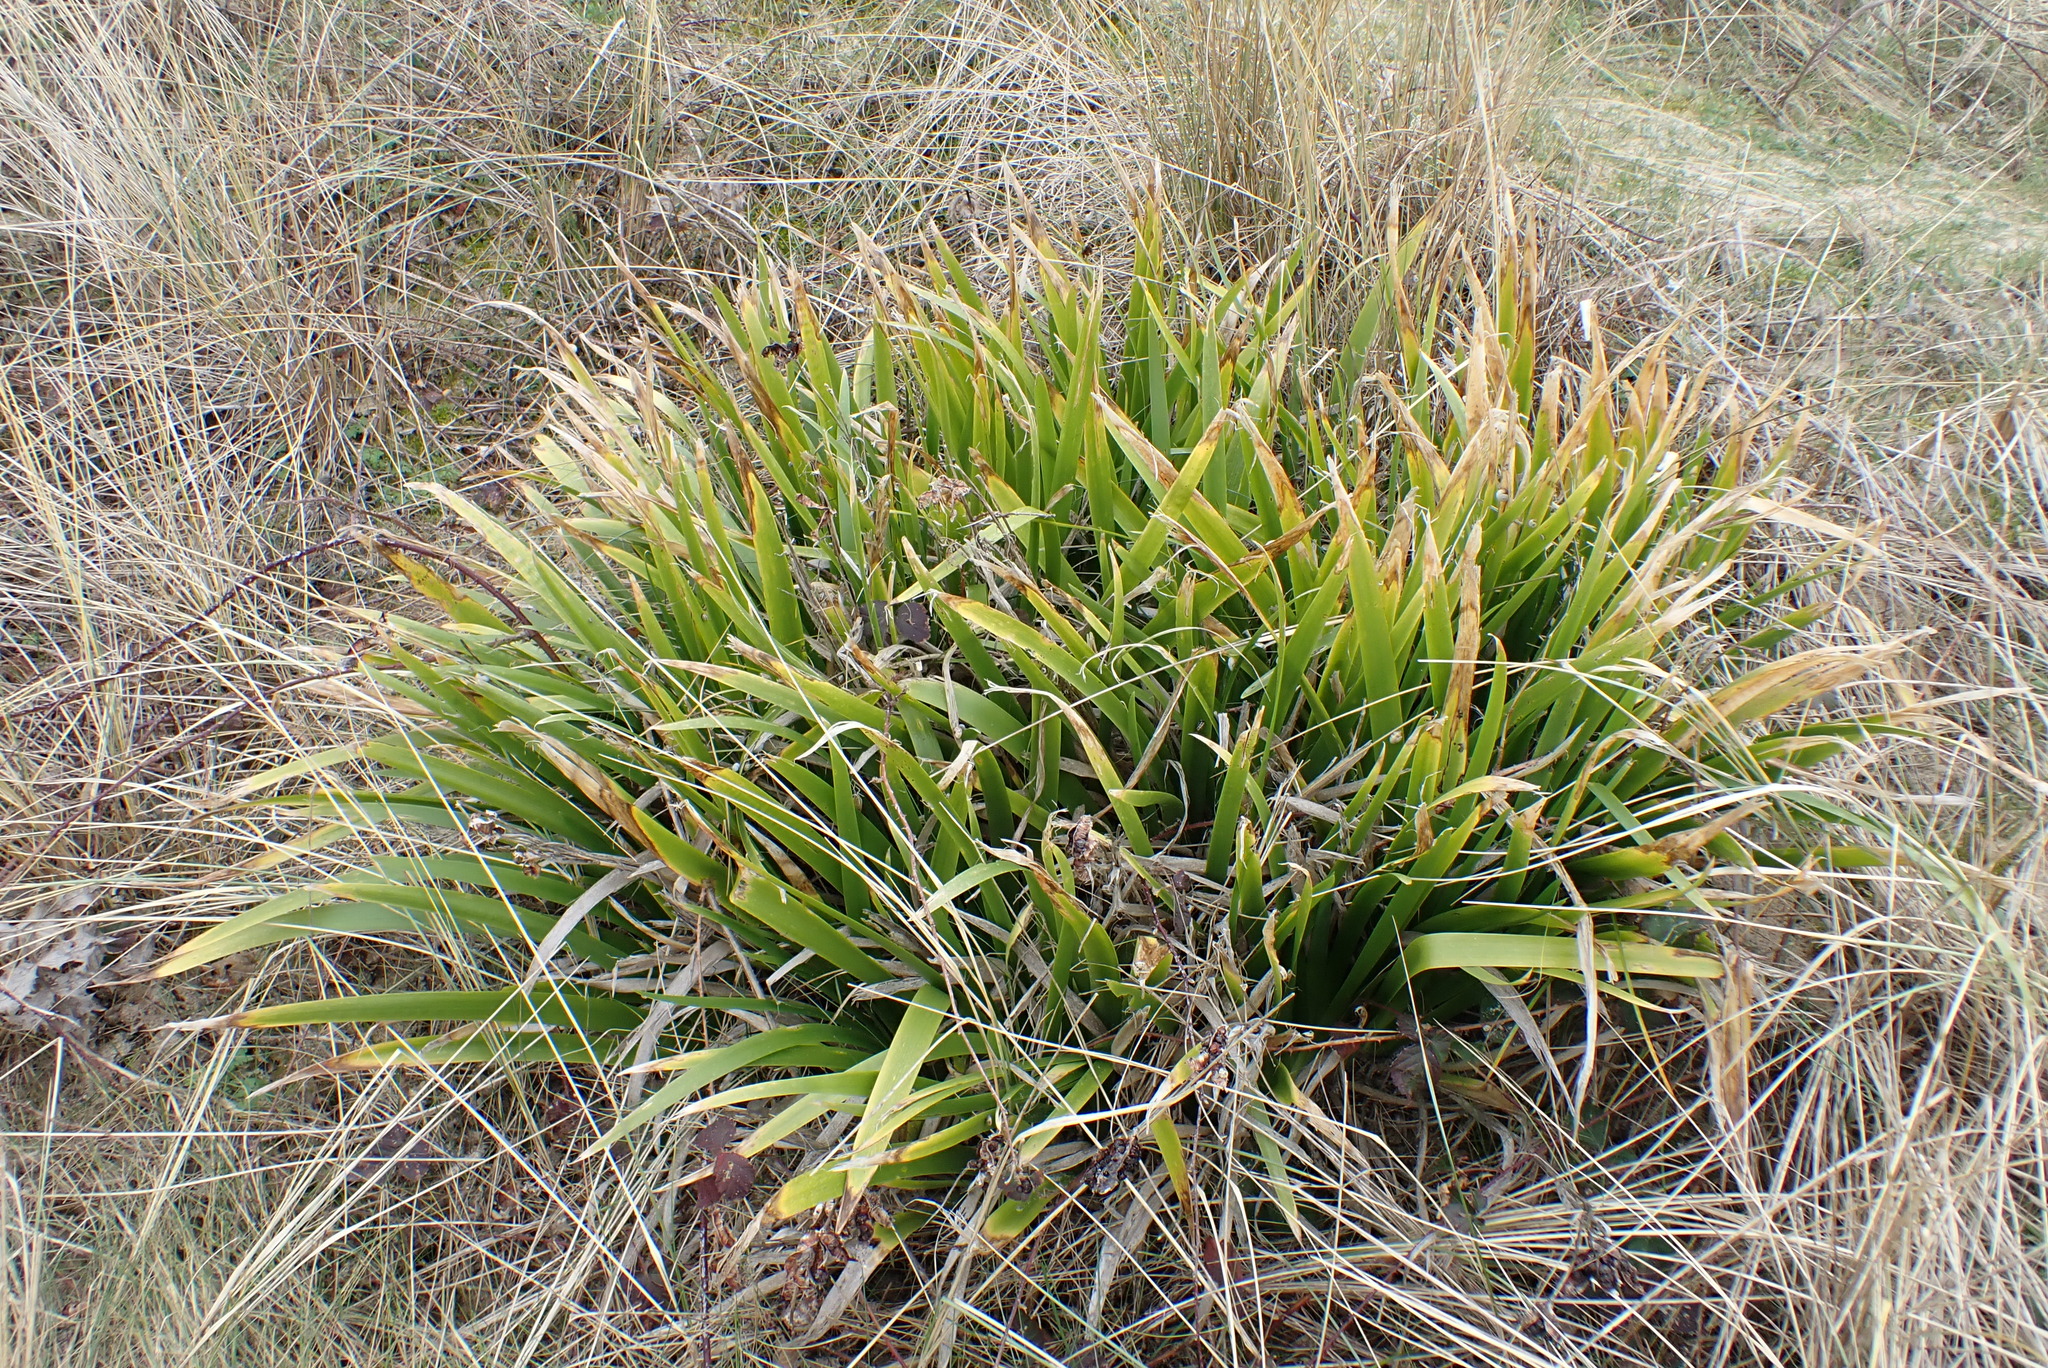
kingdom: Plantae
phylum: Tracheophyta
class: Liliopsida
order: Asparagales
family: Iridaceae
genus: Iris
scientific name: Iris foetidissima
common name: Stinking iris
